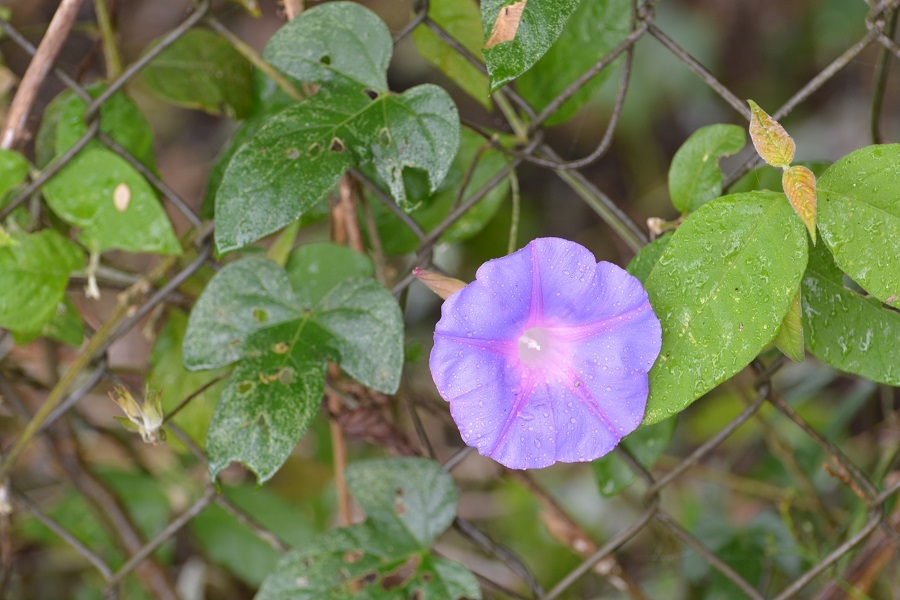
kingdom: Plantae
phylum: Tracheophyta
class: Magnoliopsida
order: Solanales
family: Convolvulaceae
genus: Ipomoea
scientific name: Ipomoea indica
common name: Blue dawnflower
